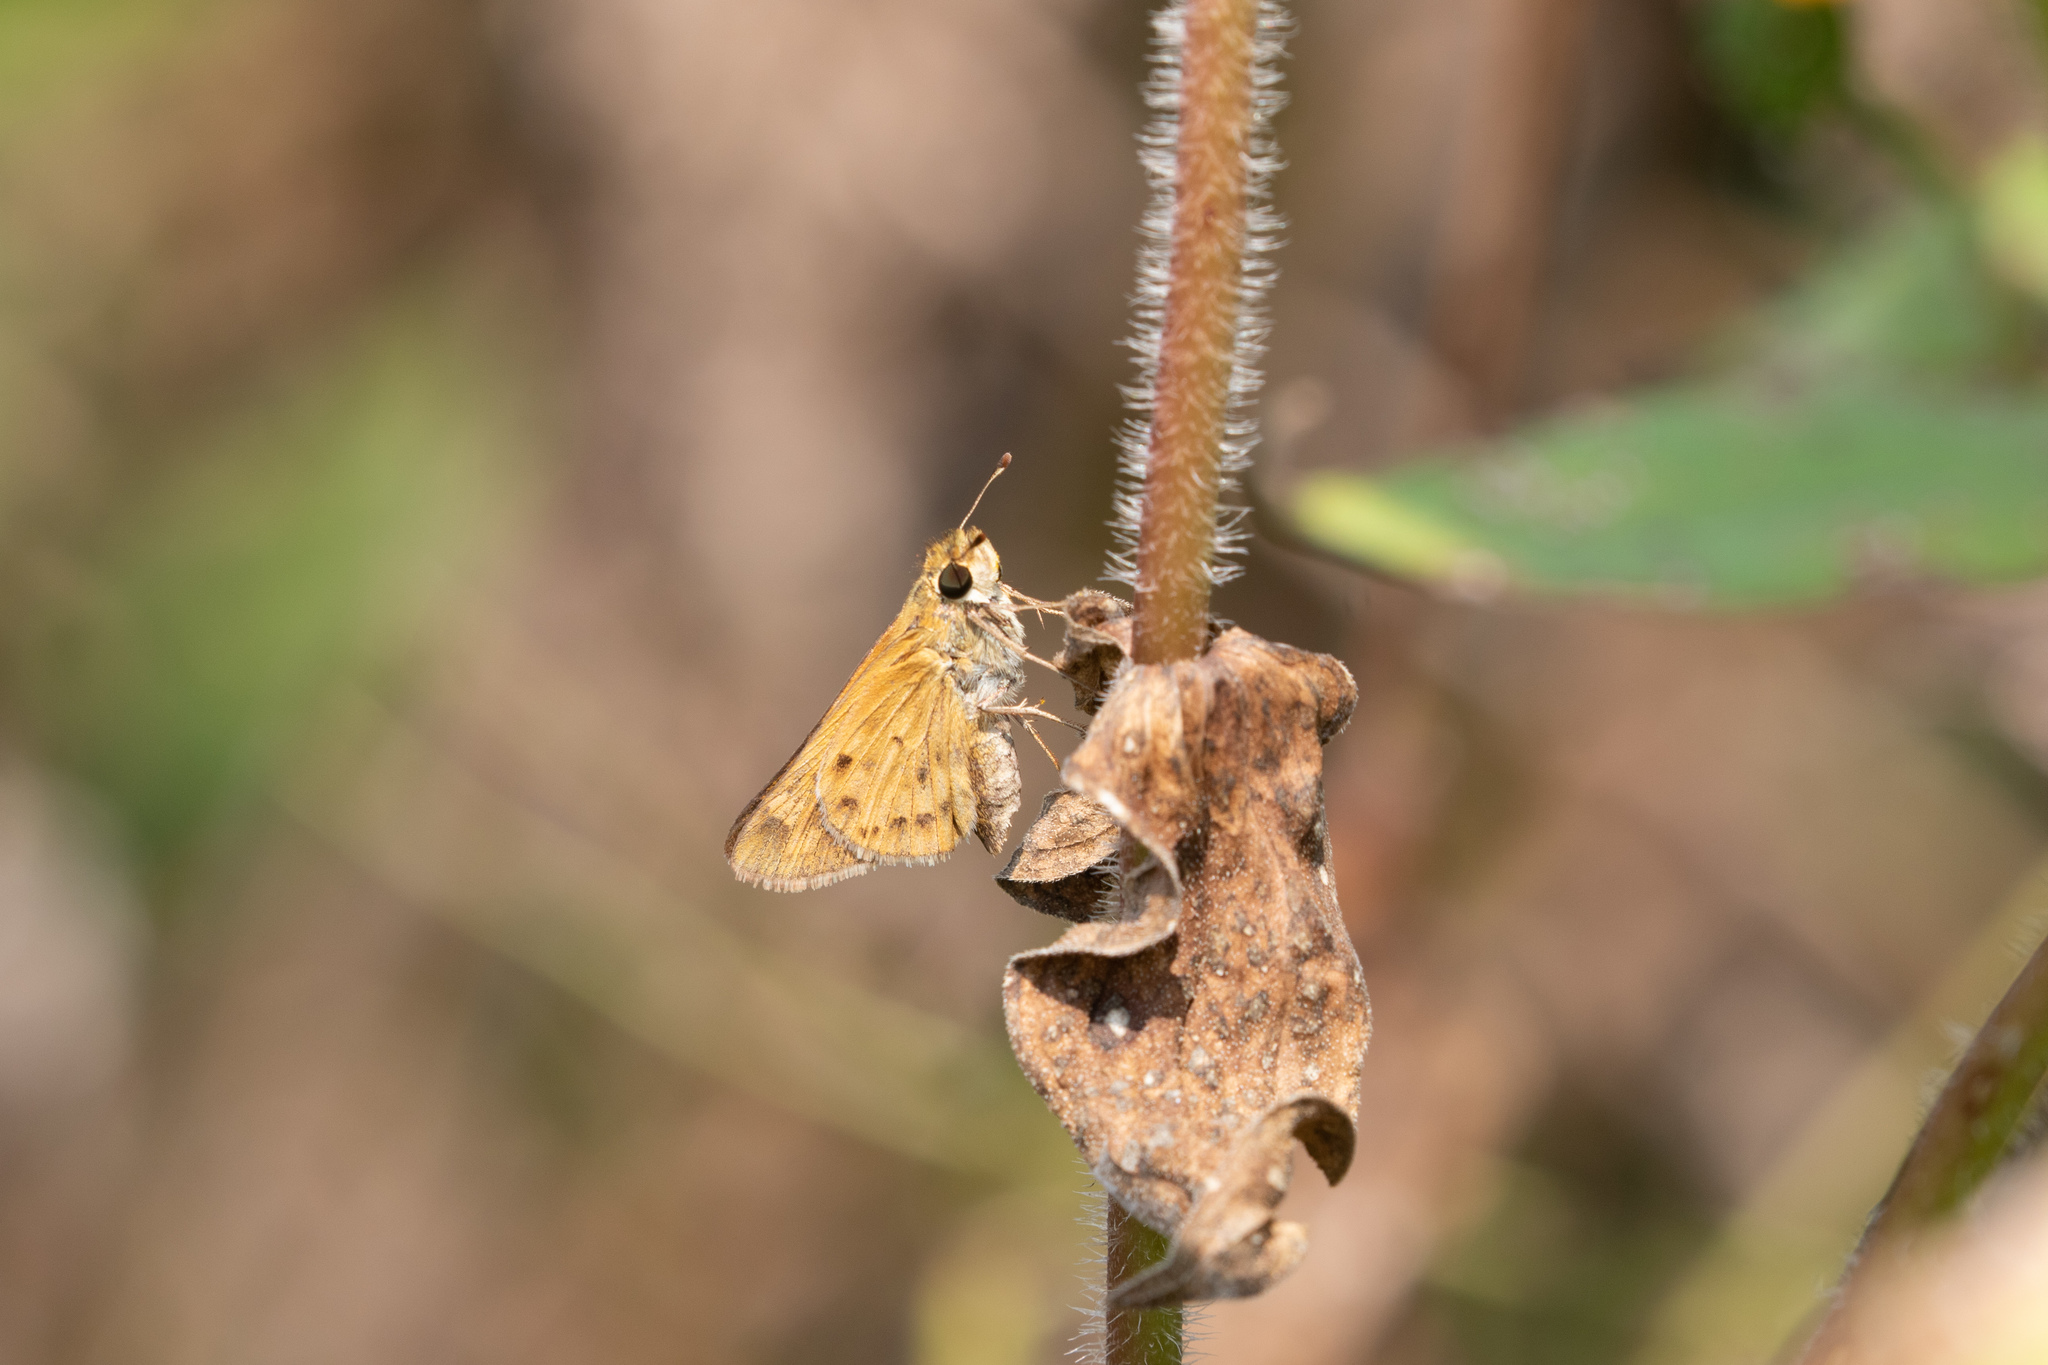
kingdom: Animalia
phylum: Arthropoda
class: Insecta
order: Lepidoptera
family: Hesperiidae
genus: Hylephila
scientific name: Hylephila phyleus
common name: Fiery skipper
